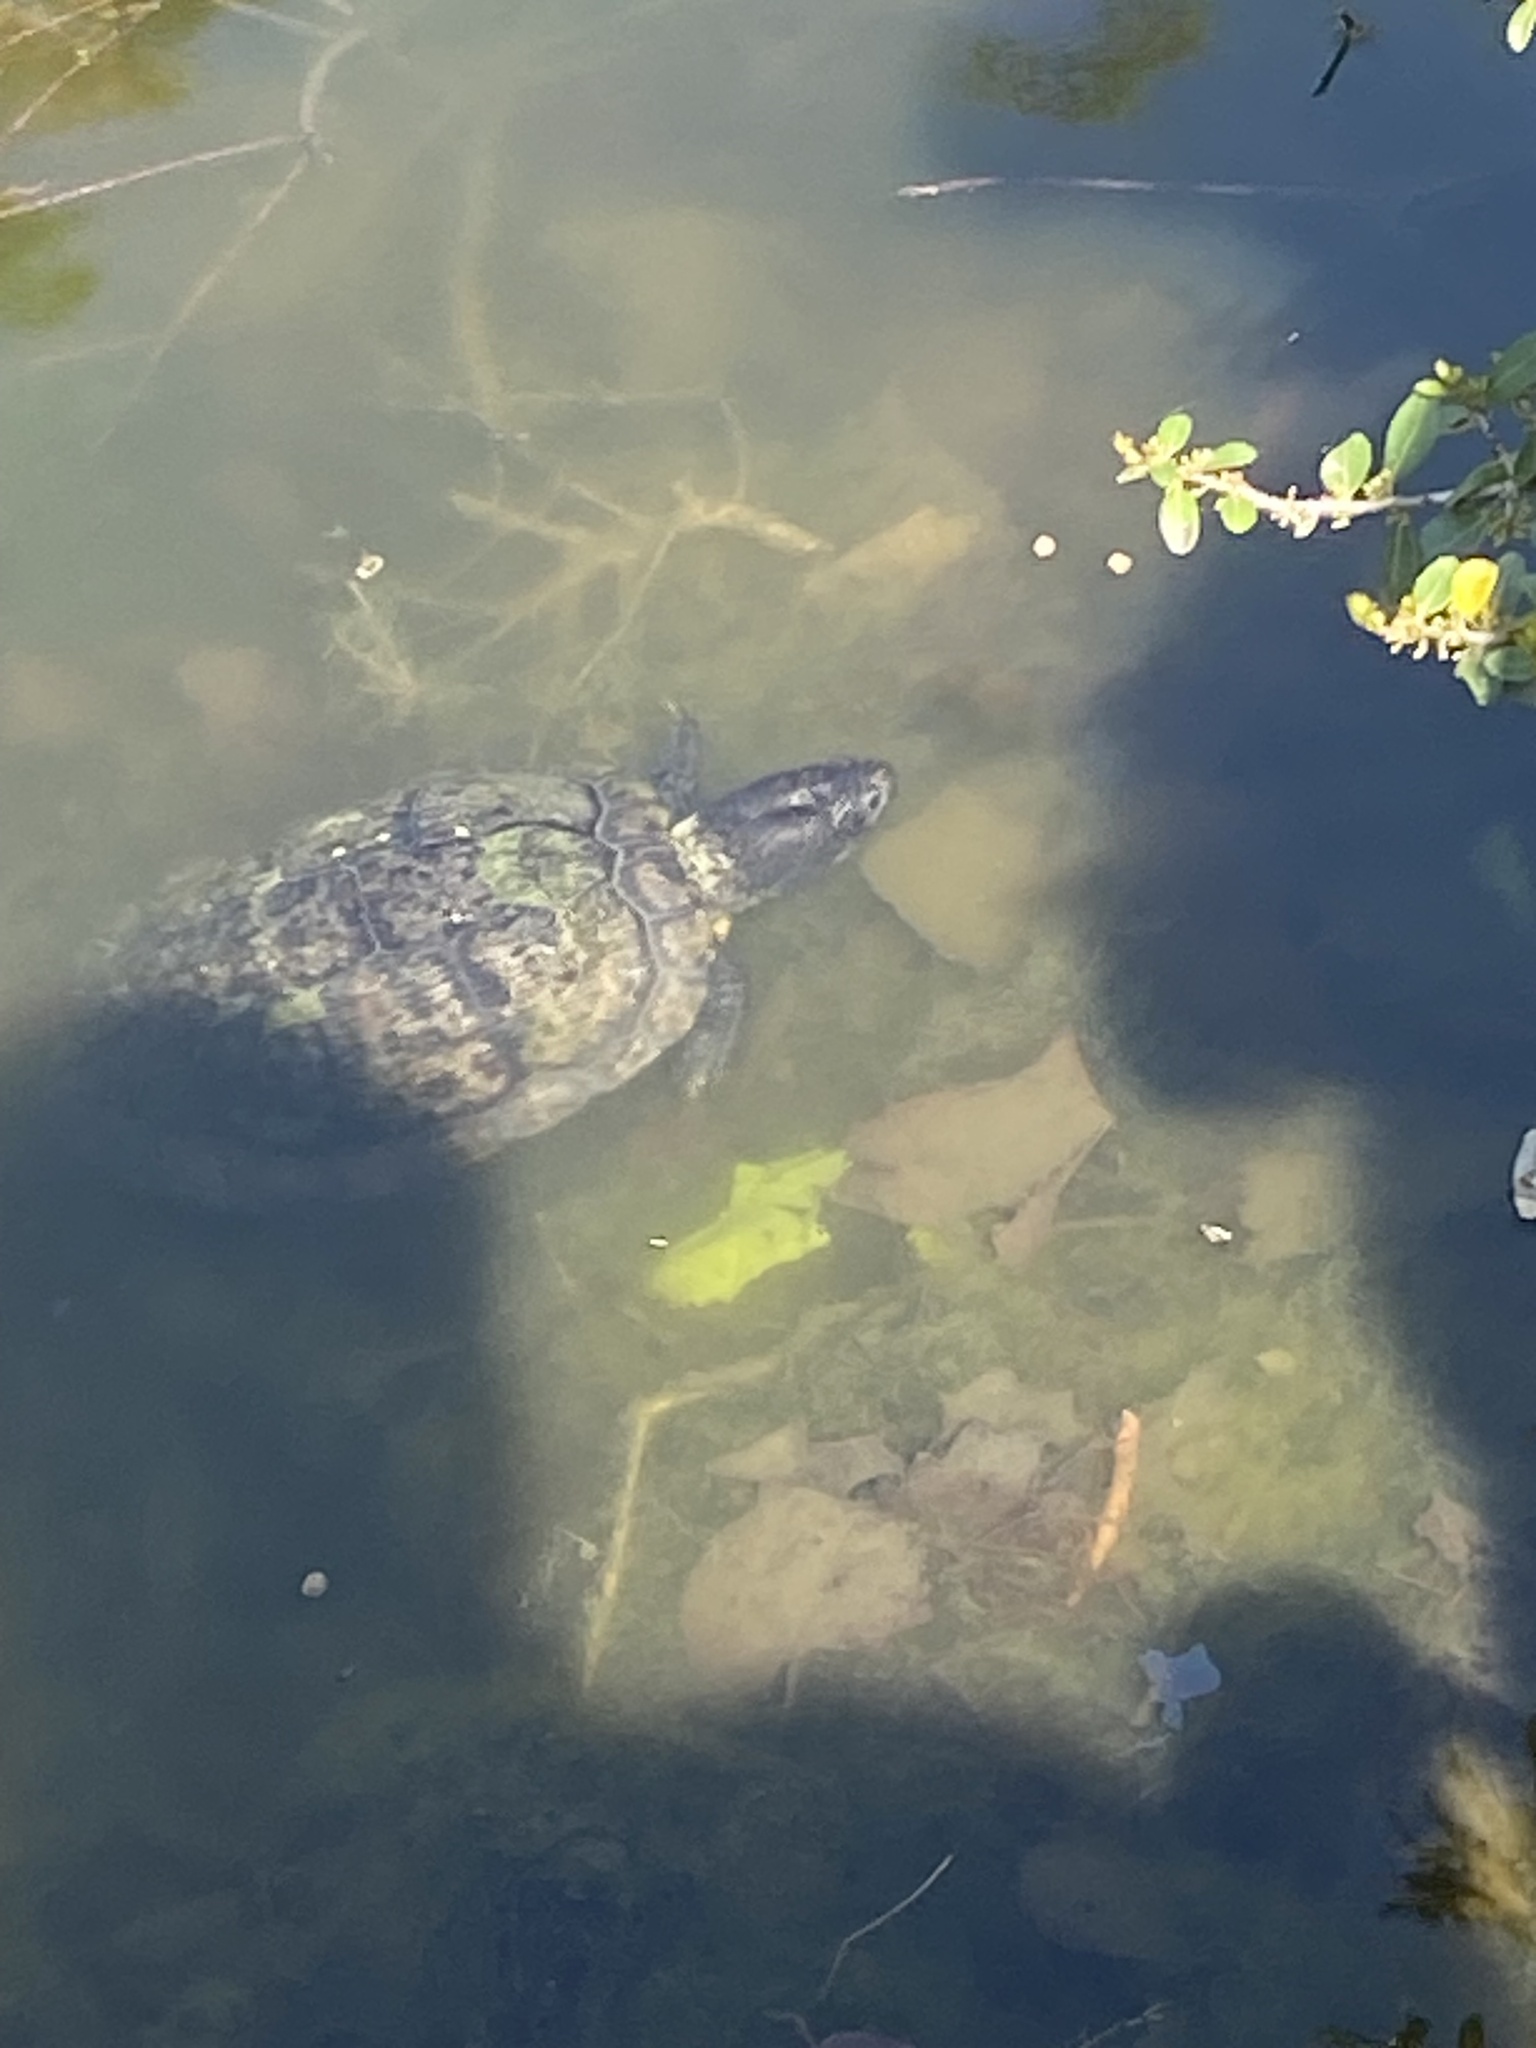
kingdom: Animalia
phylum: Chordata
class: Testudines
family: Emydidae
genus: Trachemys
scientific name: Trachemys scripta
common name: Slider
